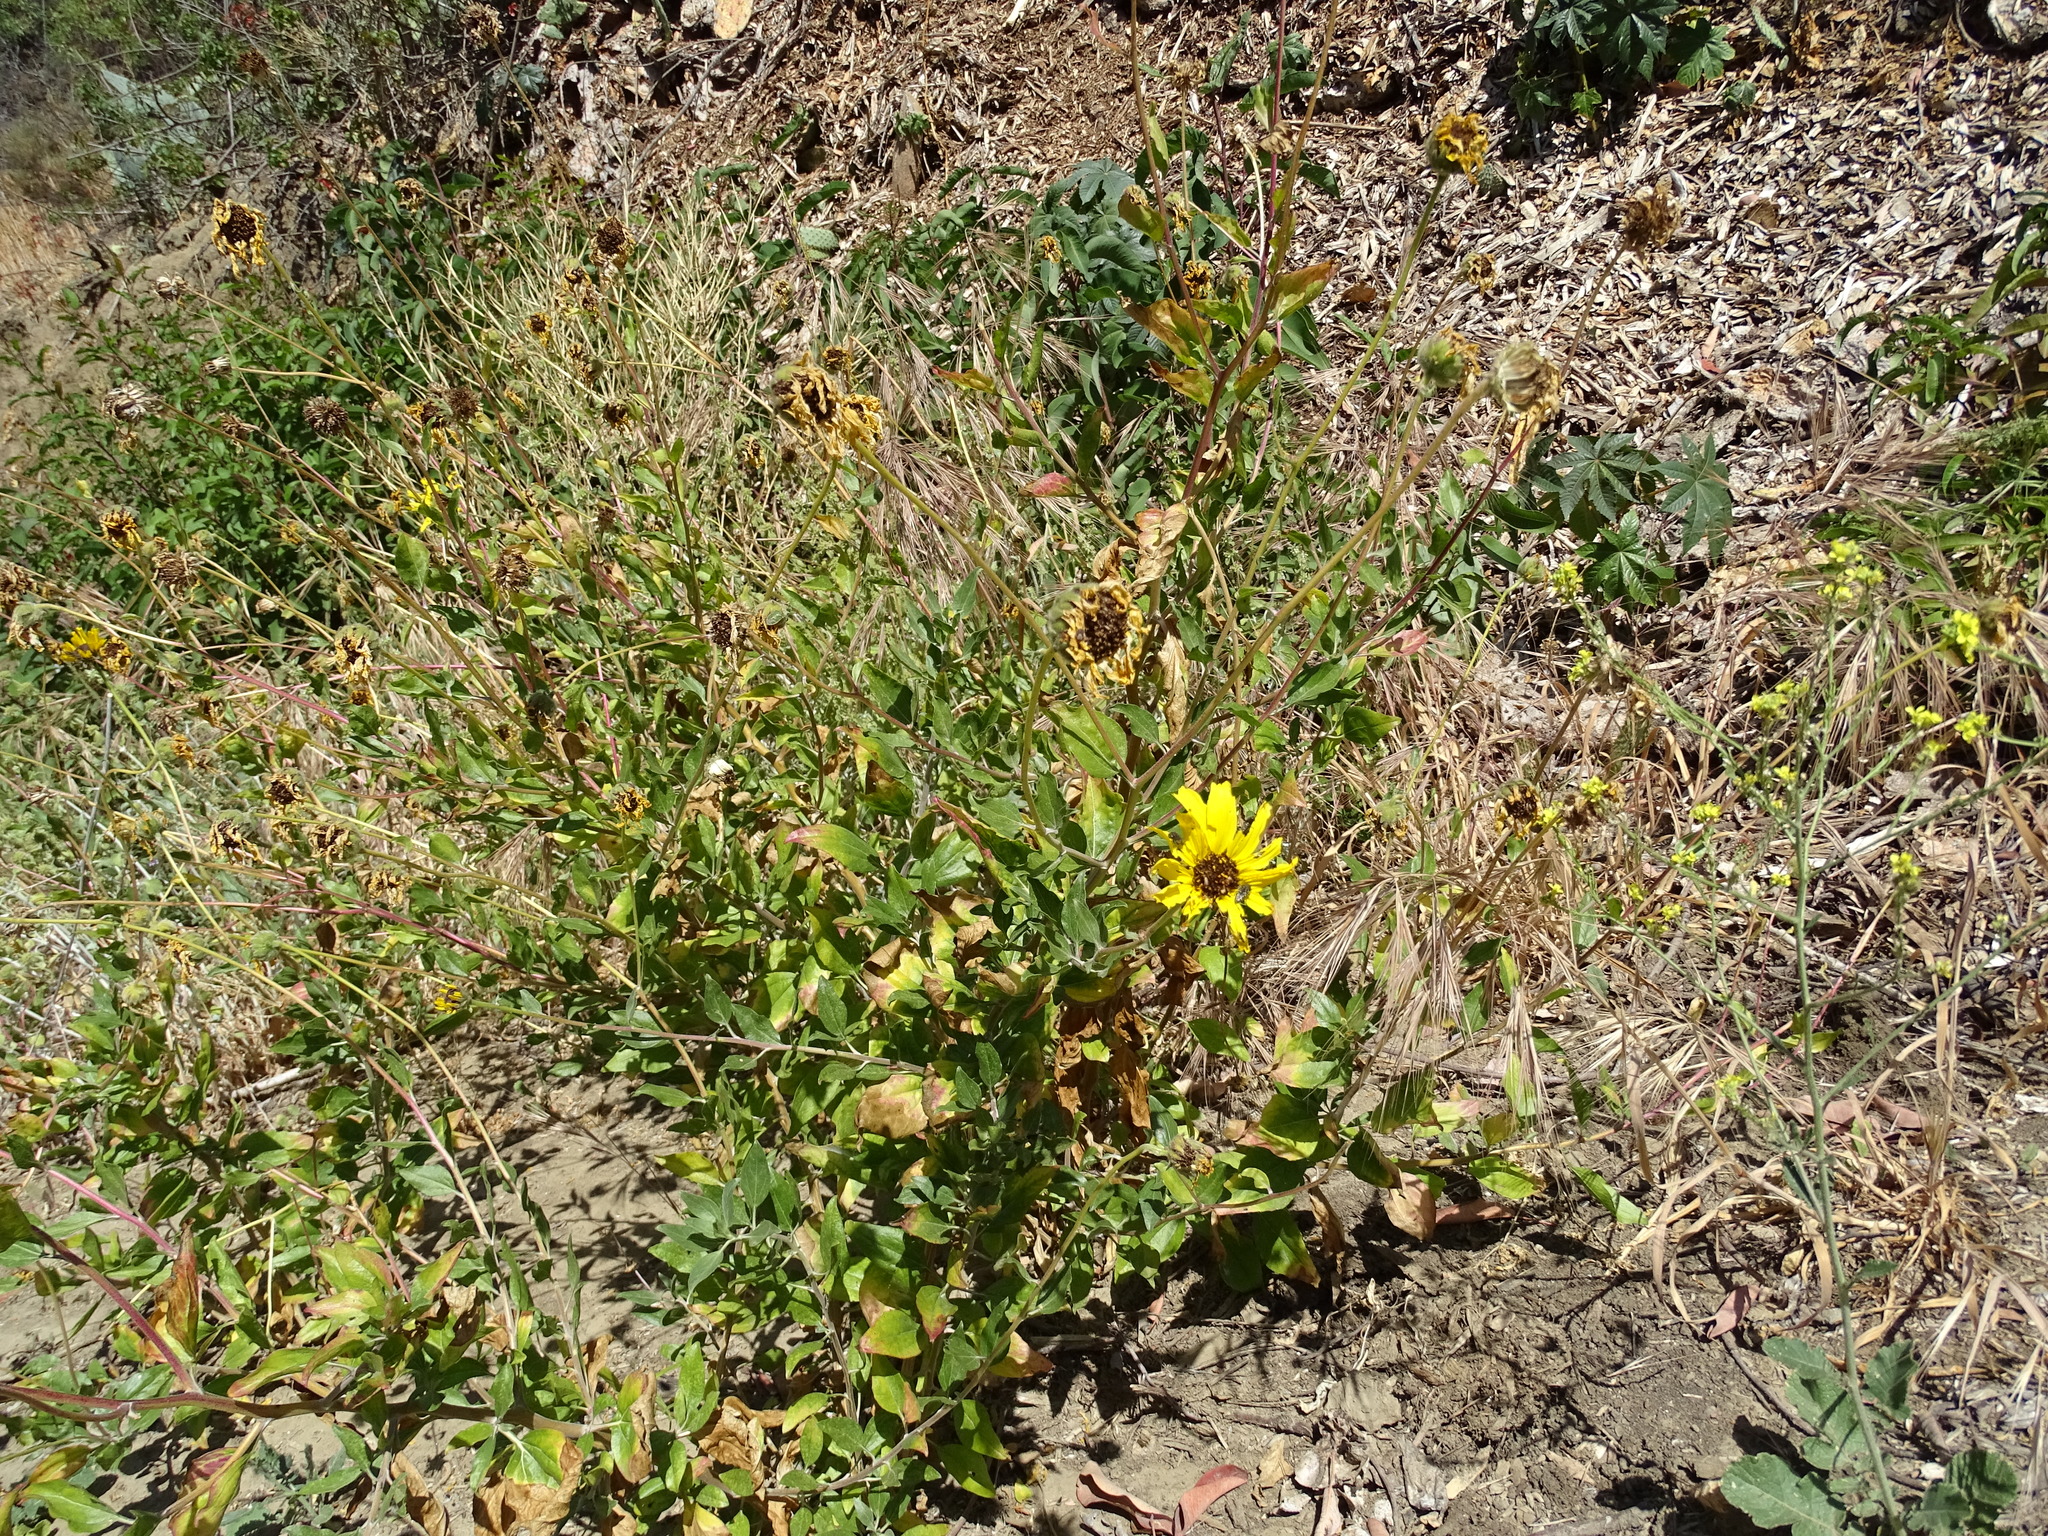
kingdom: Plantae
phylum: Tracheophyta
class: Magnoliopsida
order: Asterales
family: Asteraceae
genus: Encelia
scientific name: Encelia californica
